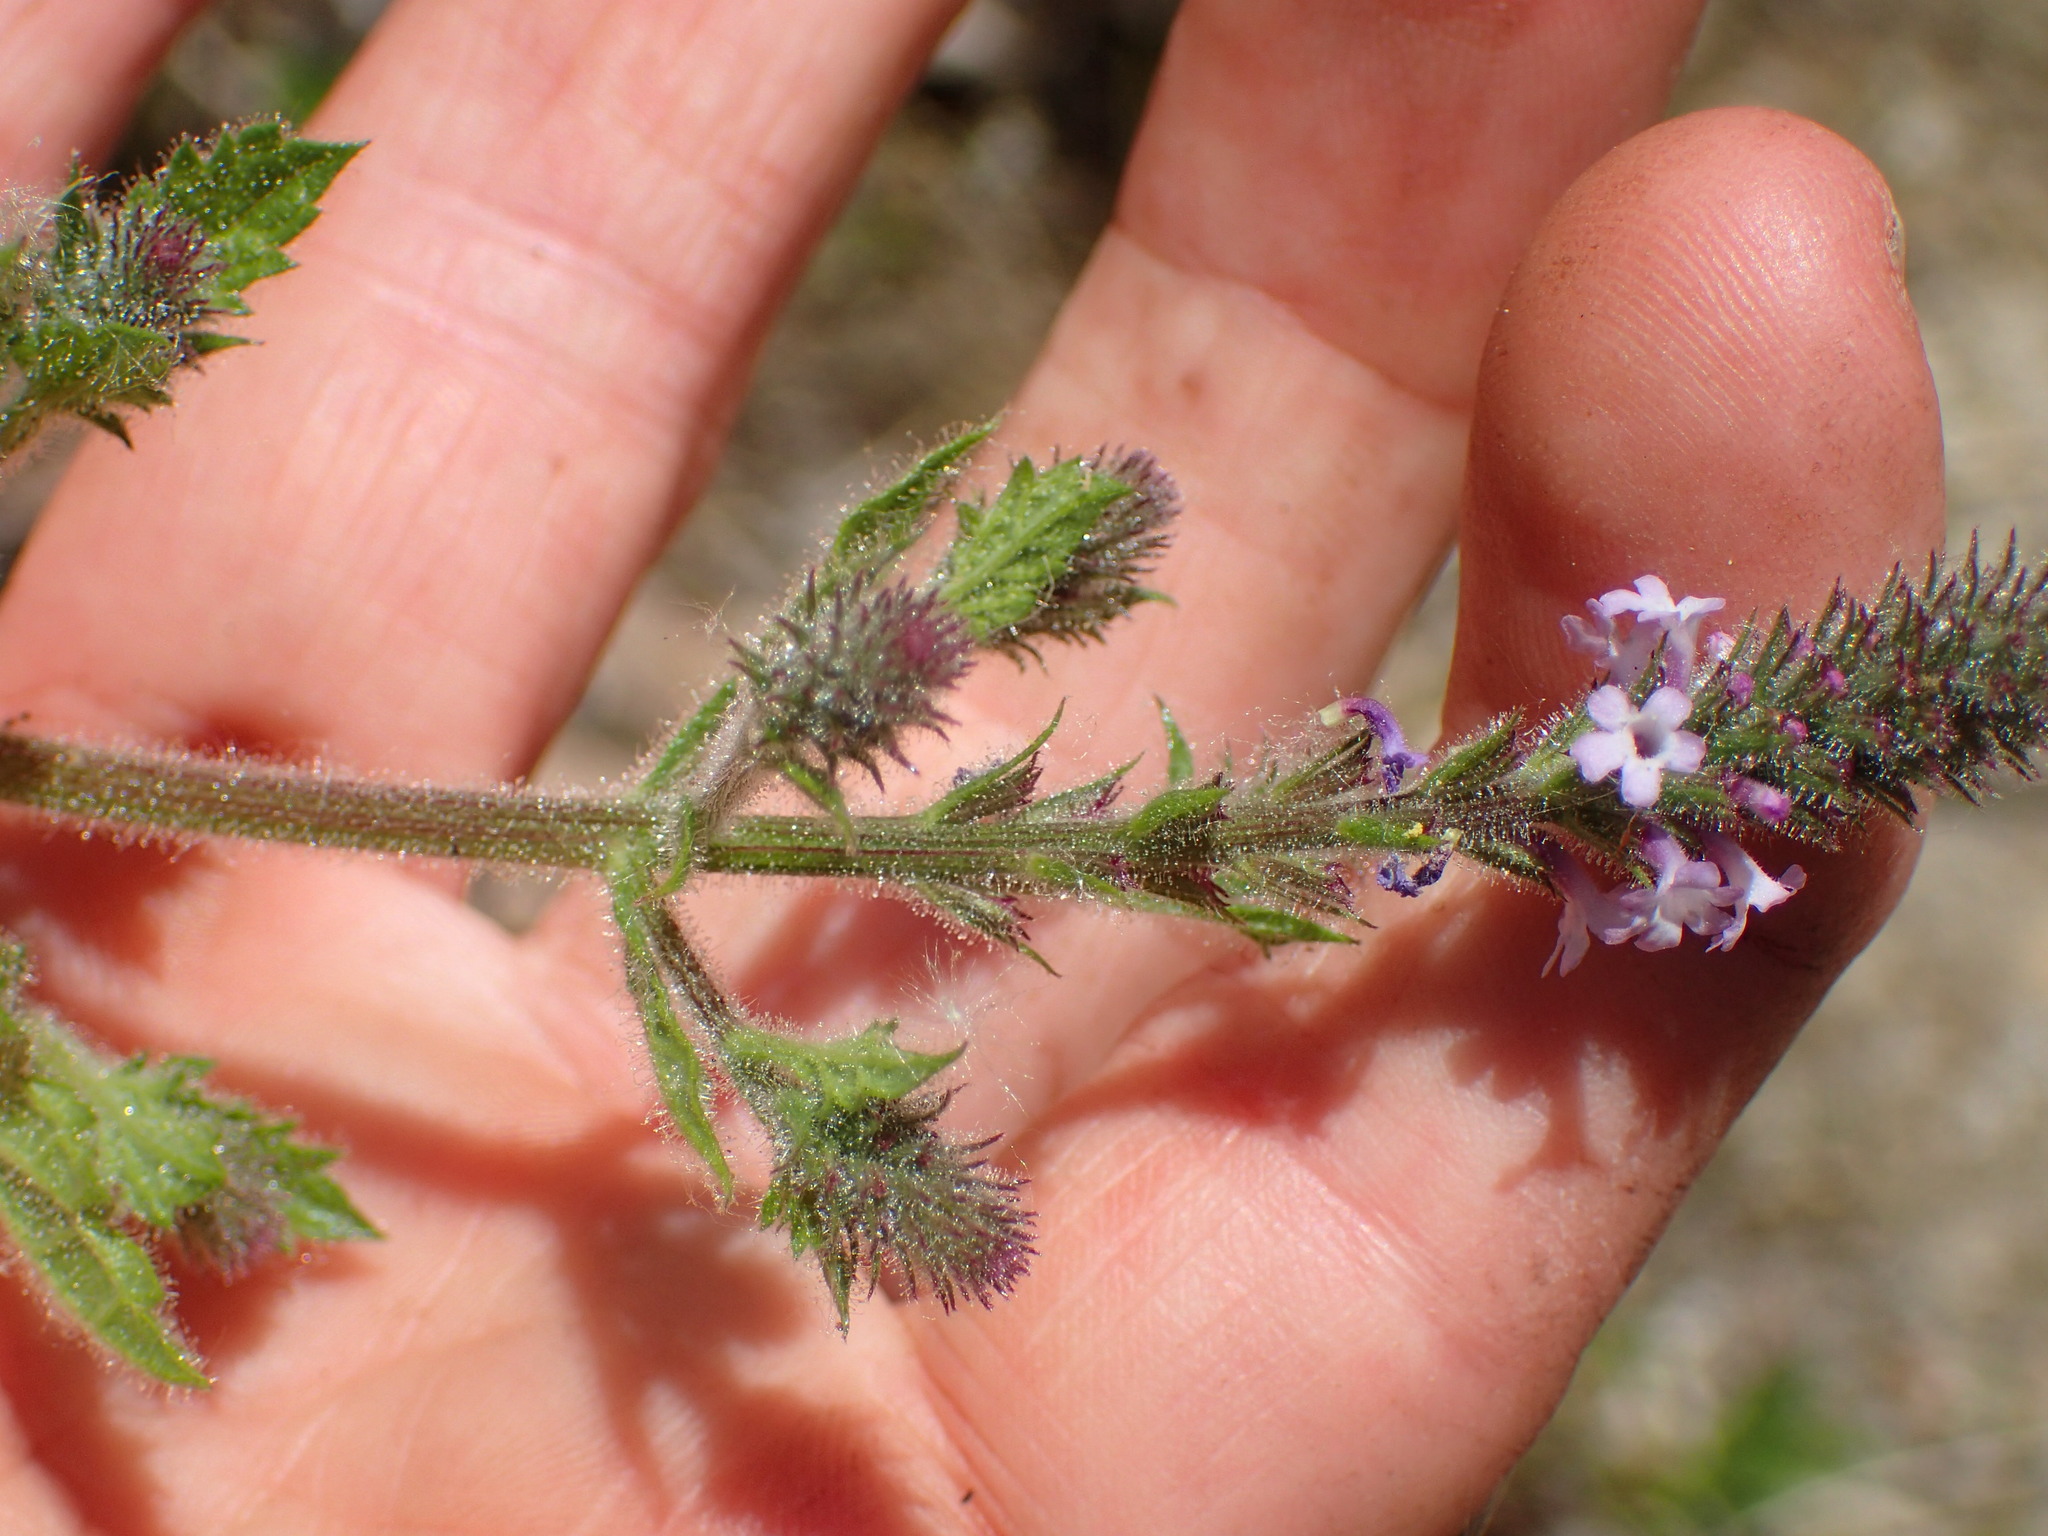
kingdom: Plantae
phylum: Tracheophyta
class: Magnoliopsida
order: Lamiales
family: Verbenaceae
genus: Verbena
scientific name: Verbena lasiostachys
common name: Vervain
